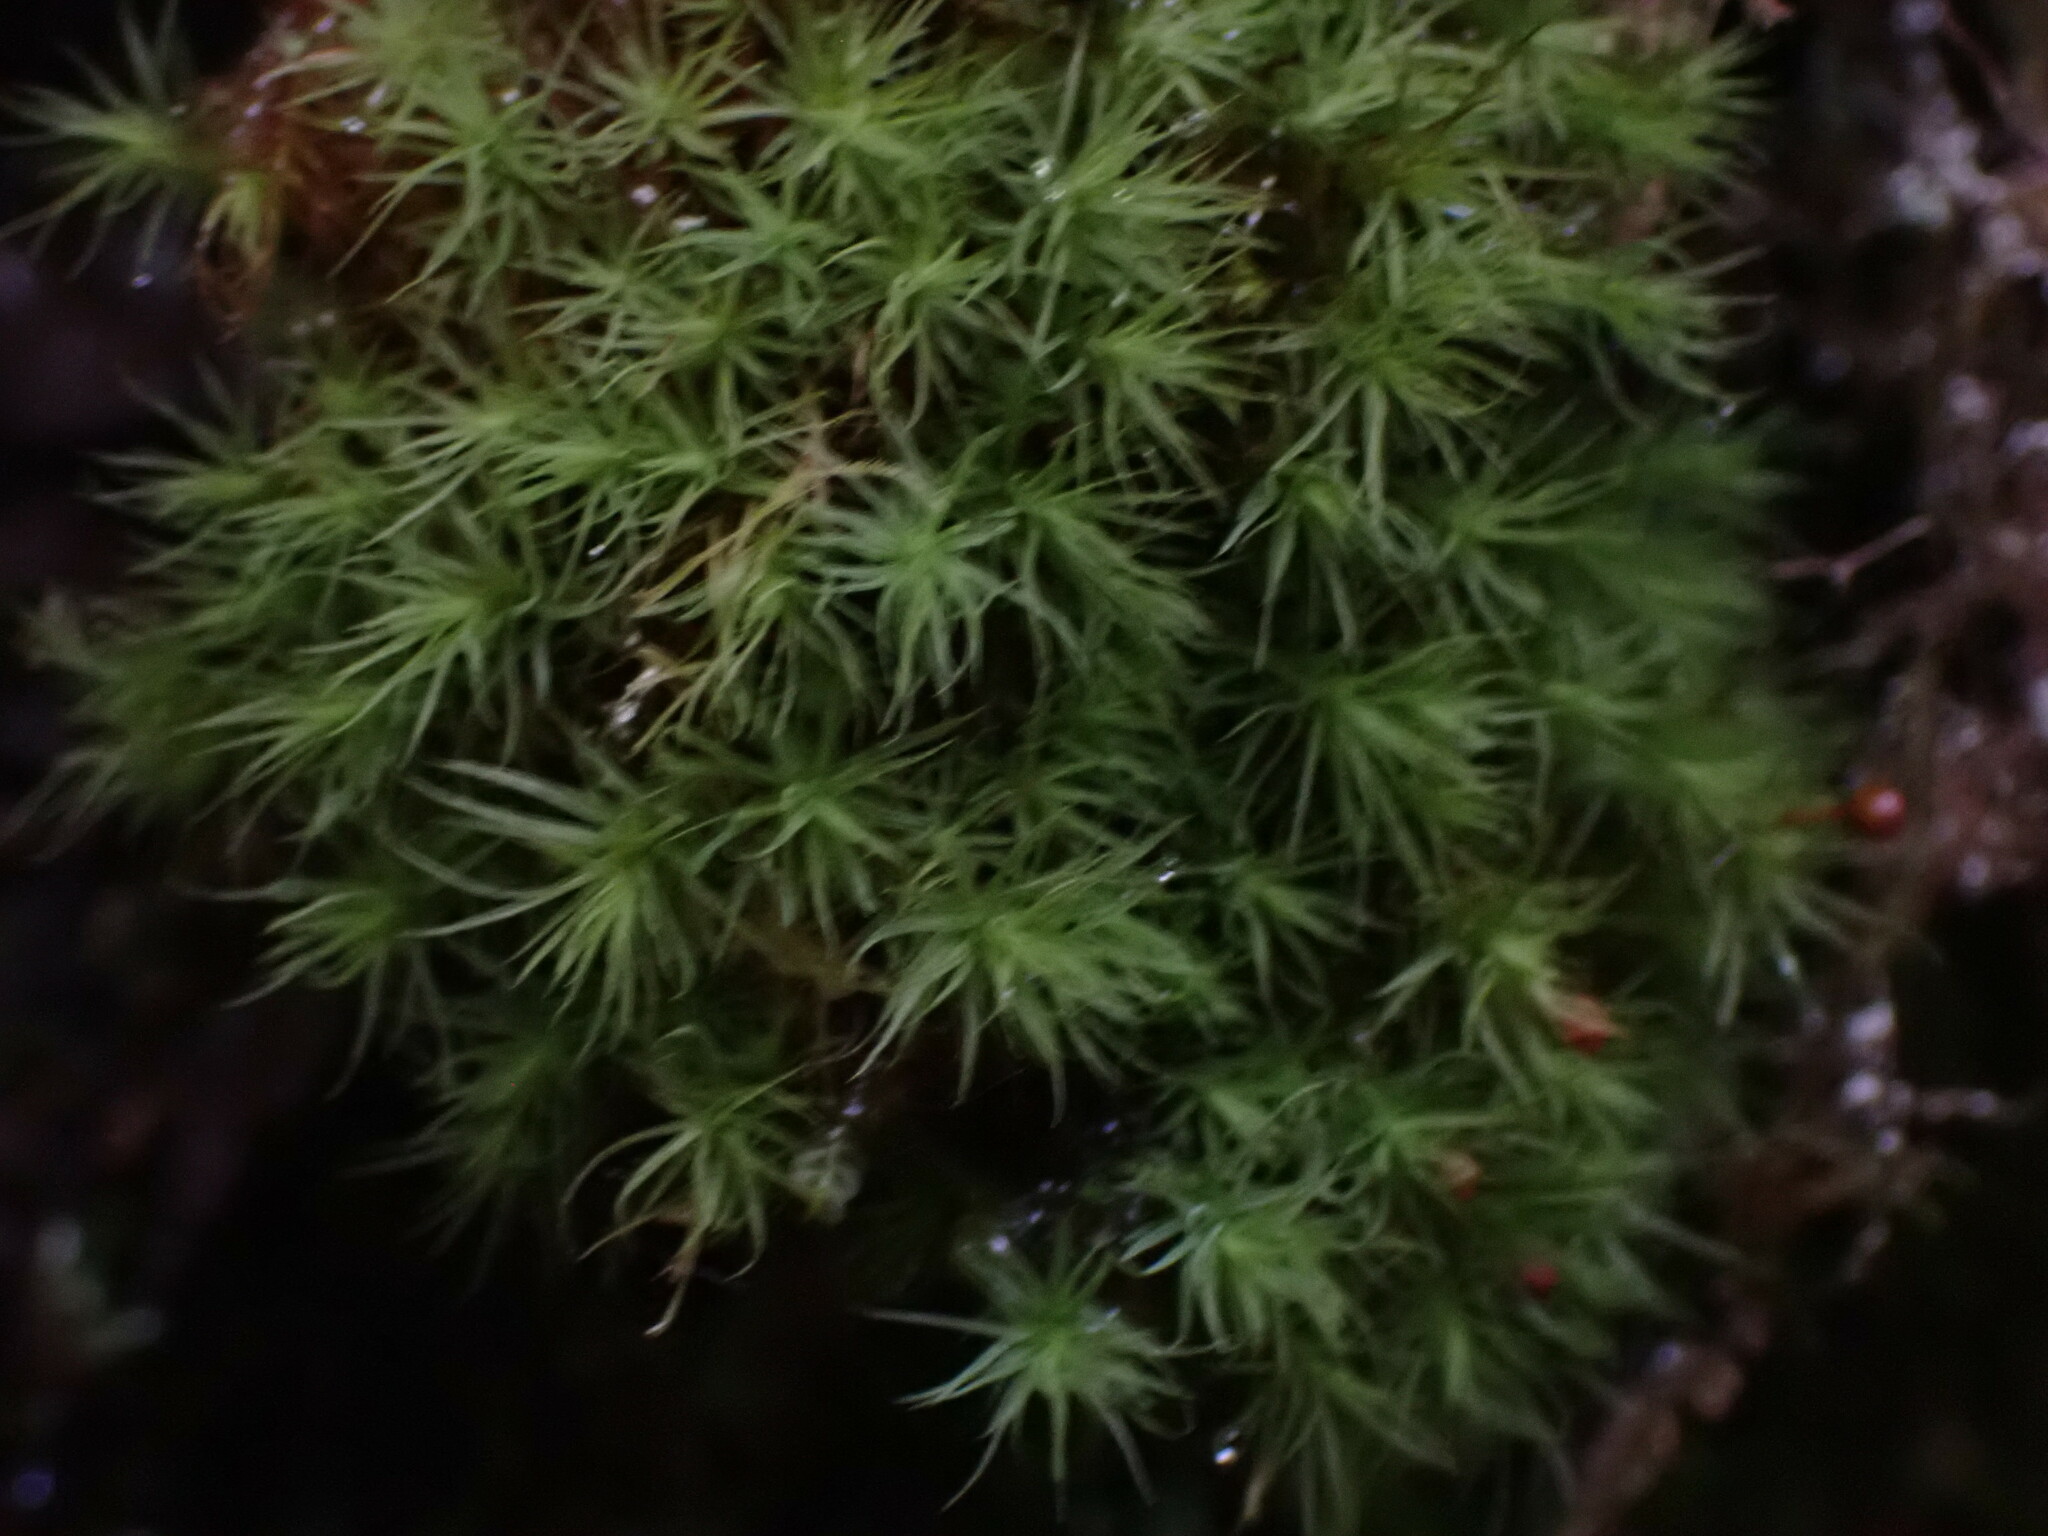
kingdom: Plantae
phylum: Bryophyta
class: Bryopsida
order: Bartramiales
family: Bartramiaceae
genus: Bartramia
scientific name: Bartramia ithyphylla
